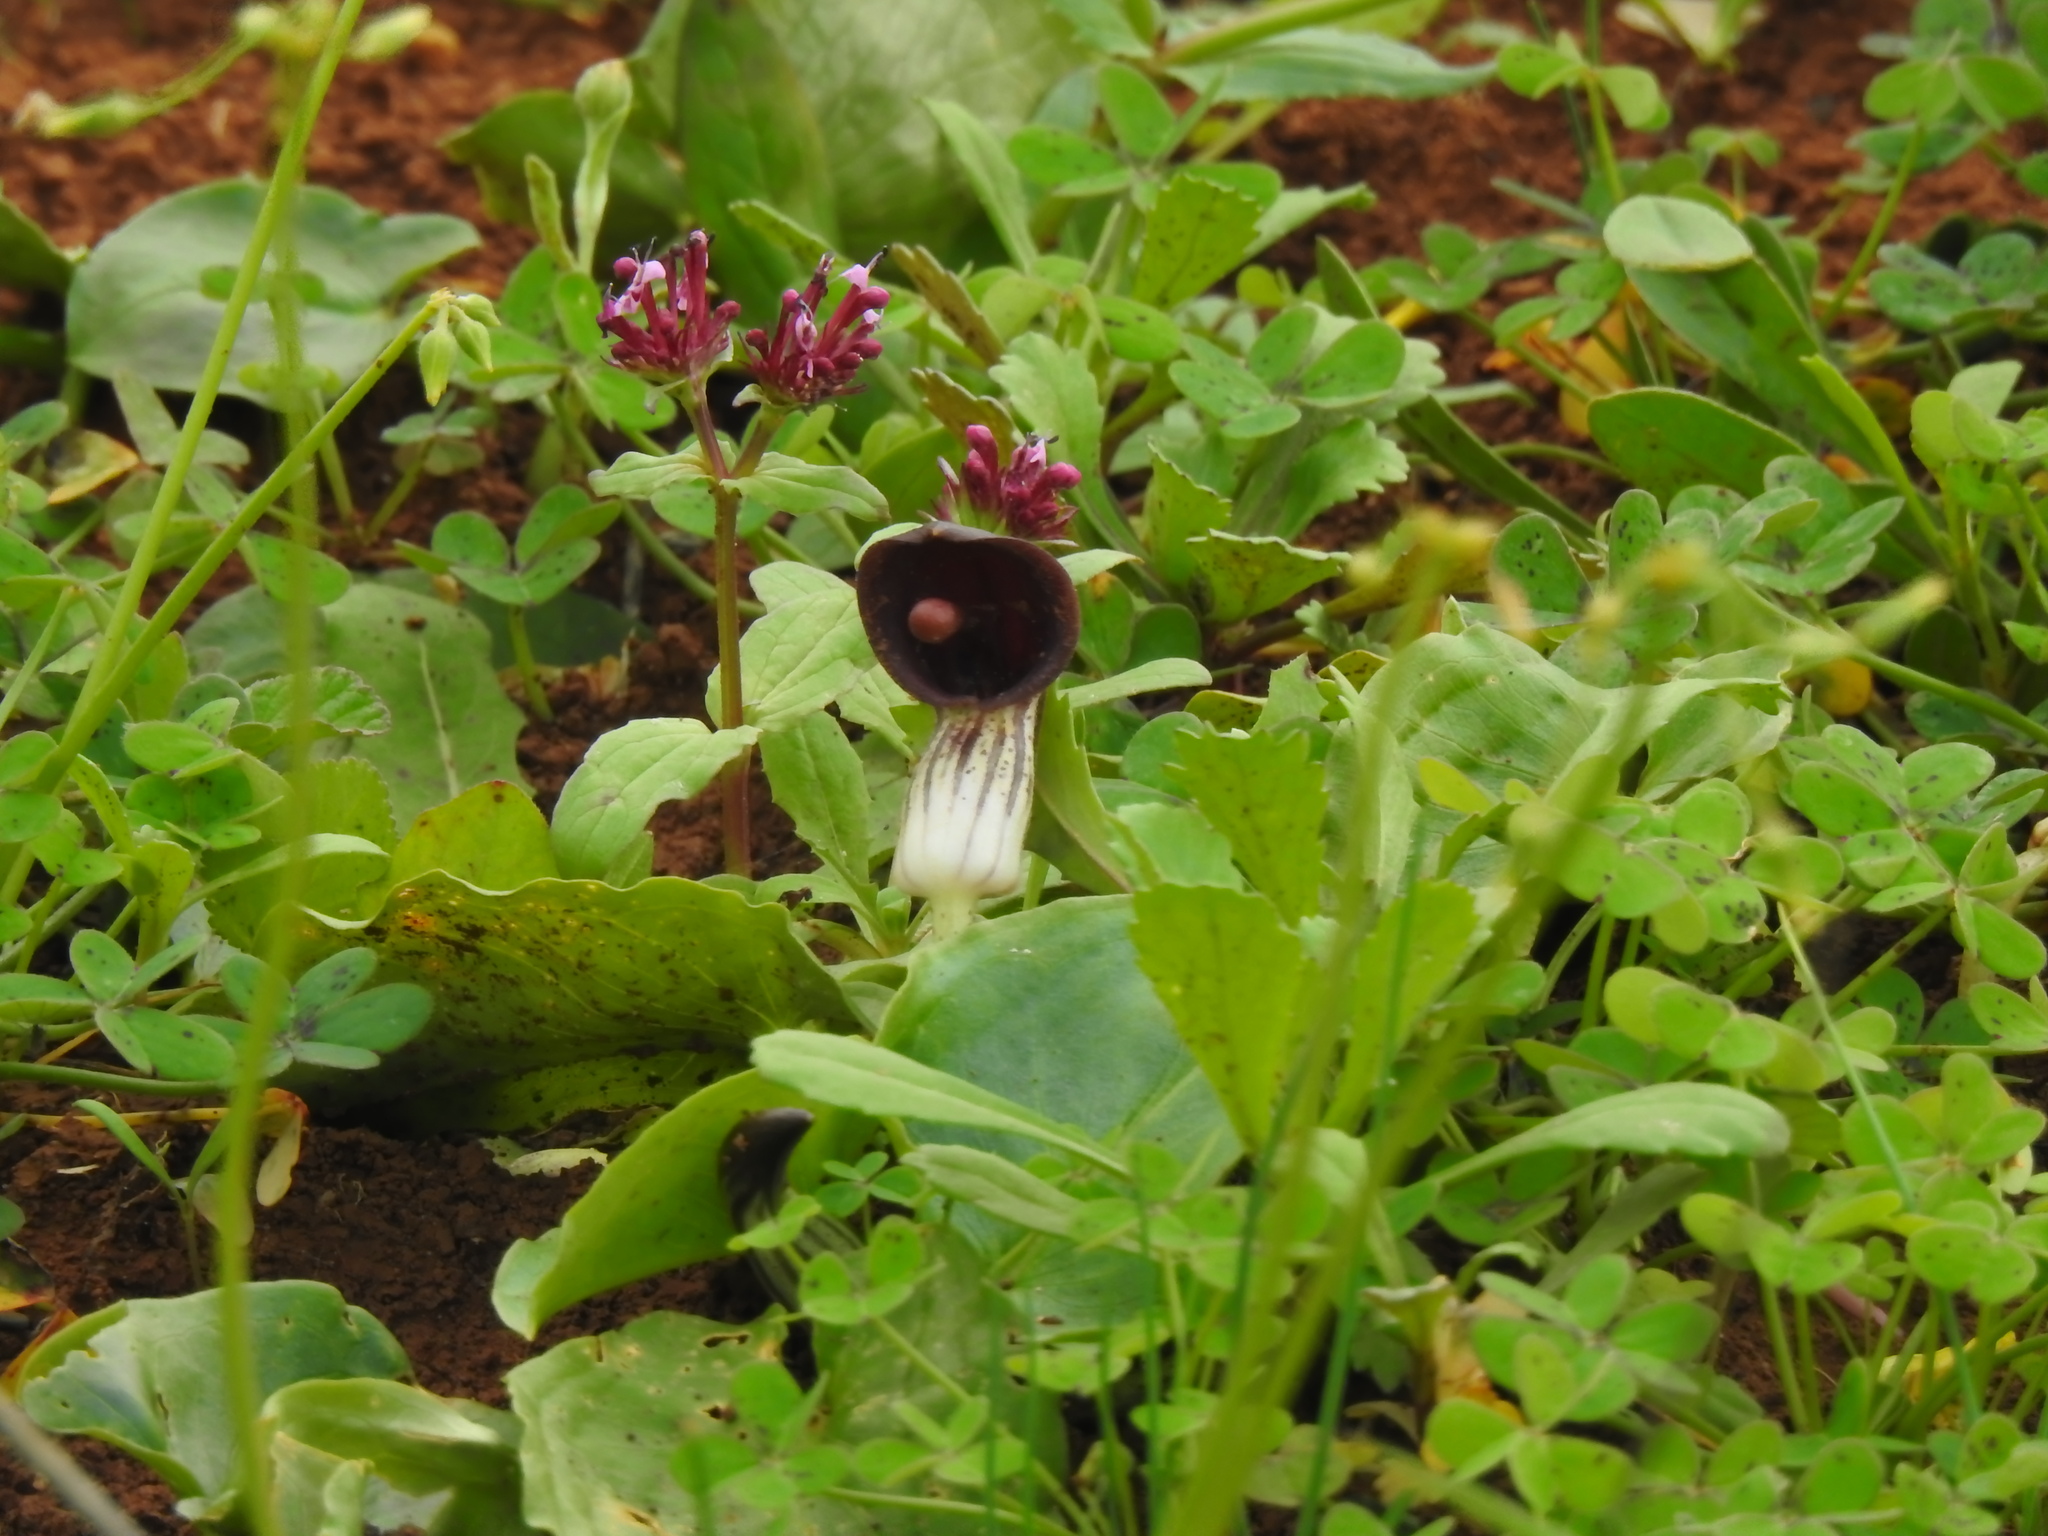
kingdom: Plantae
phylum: Tracheophyta
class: Liliopsida
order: Alismatales
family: Araceae
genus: Arisarum
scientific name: Arisarum simorrhinum
